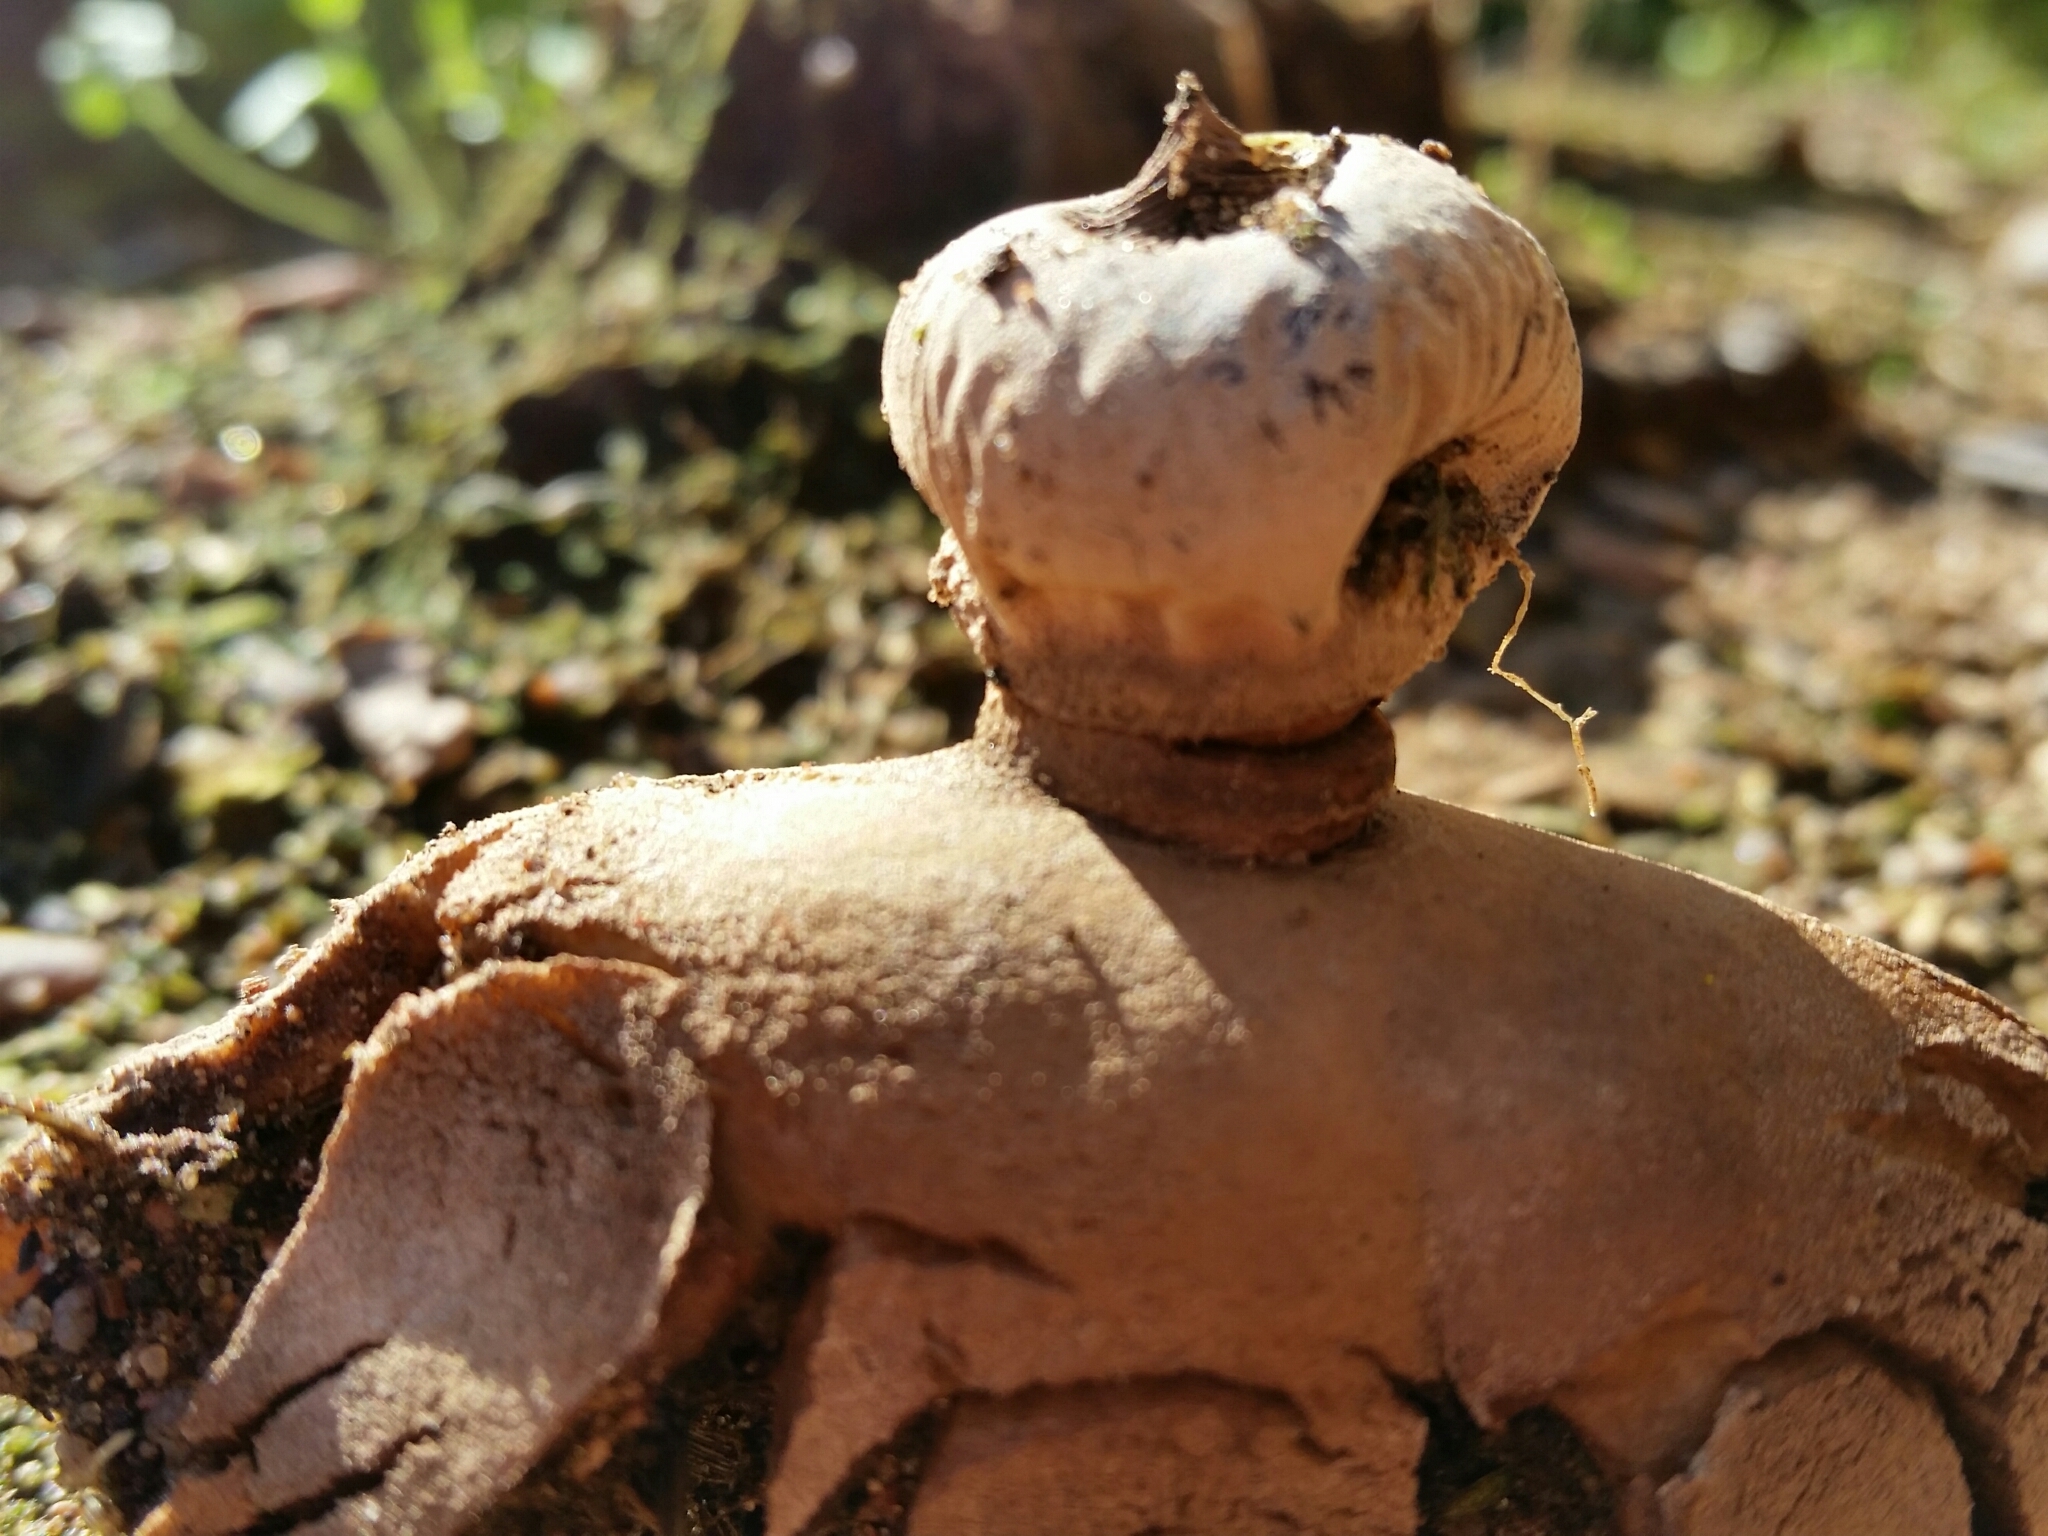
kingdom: Fungi
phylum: Basidiomycota
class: Agaricomycetes
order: Geastrales
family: Geastraceae
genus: Geastrum
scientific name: Geastrum striatum
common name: Striate earthstar
